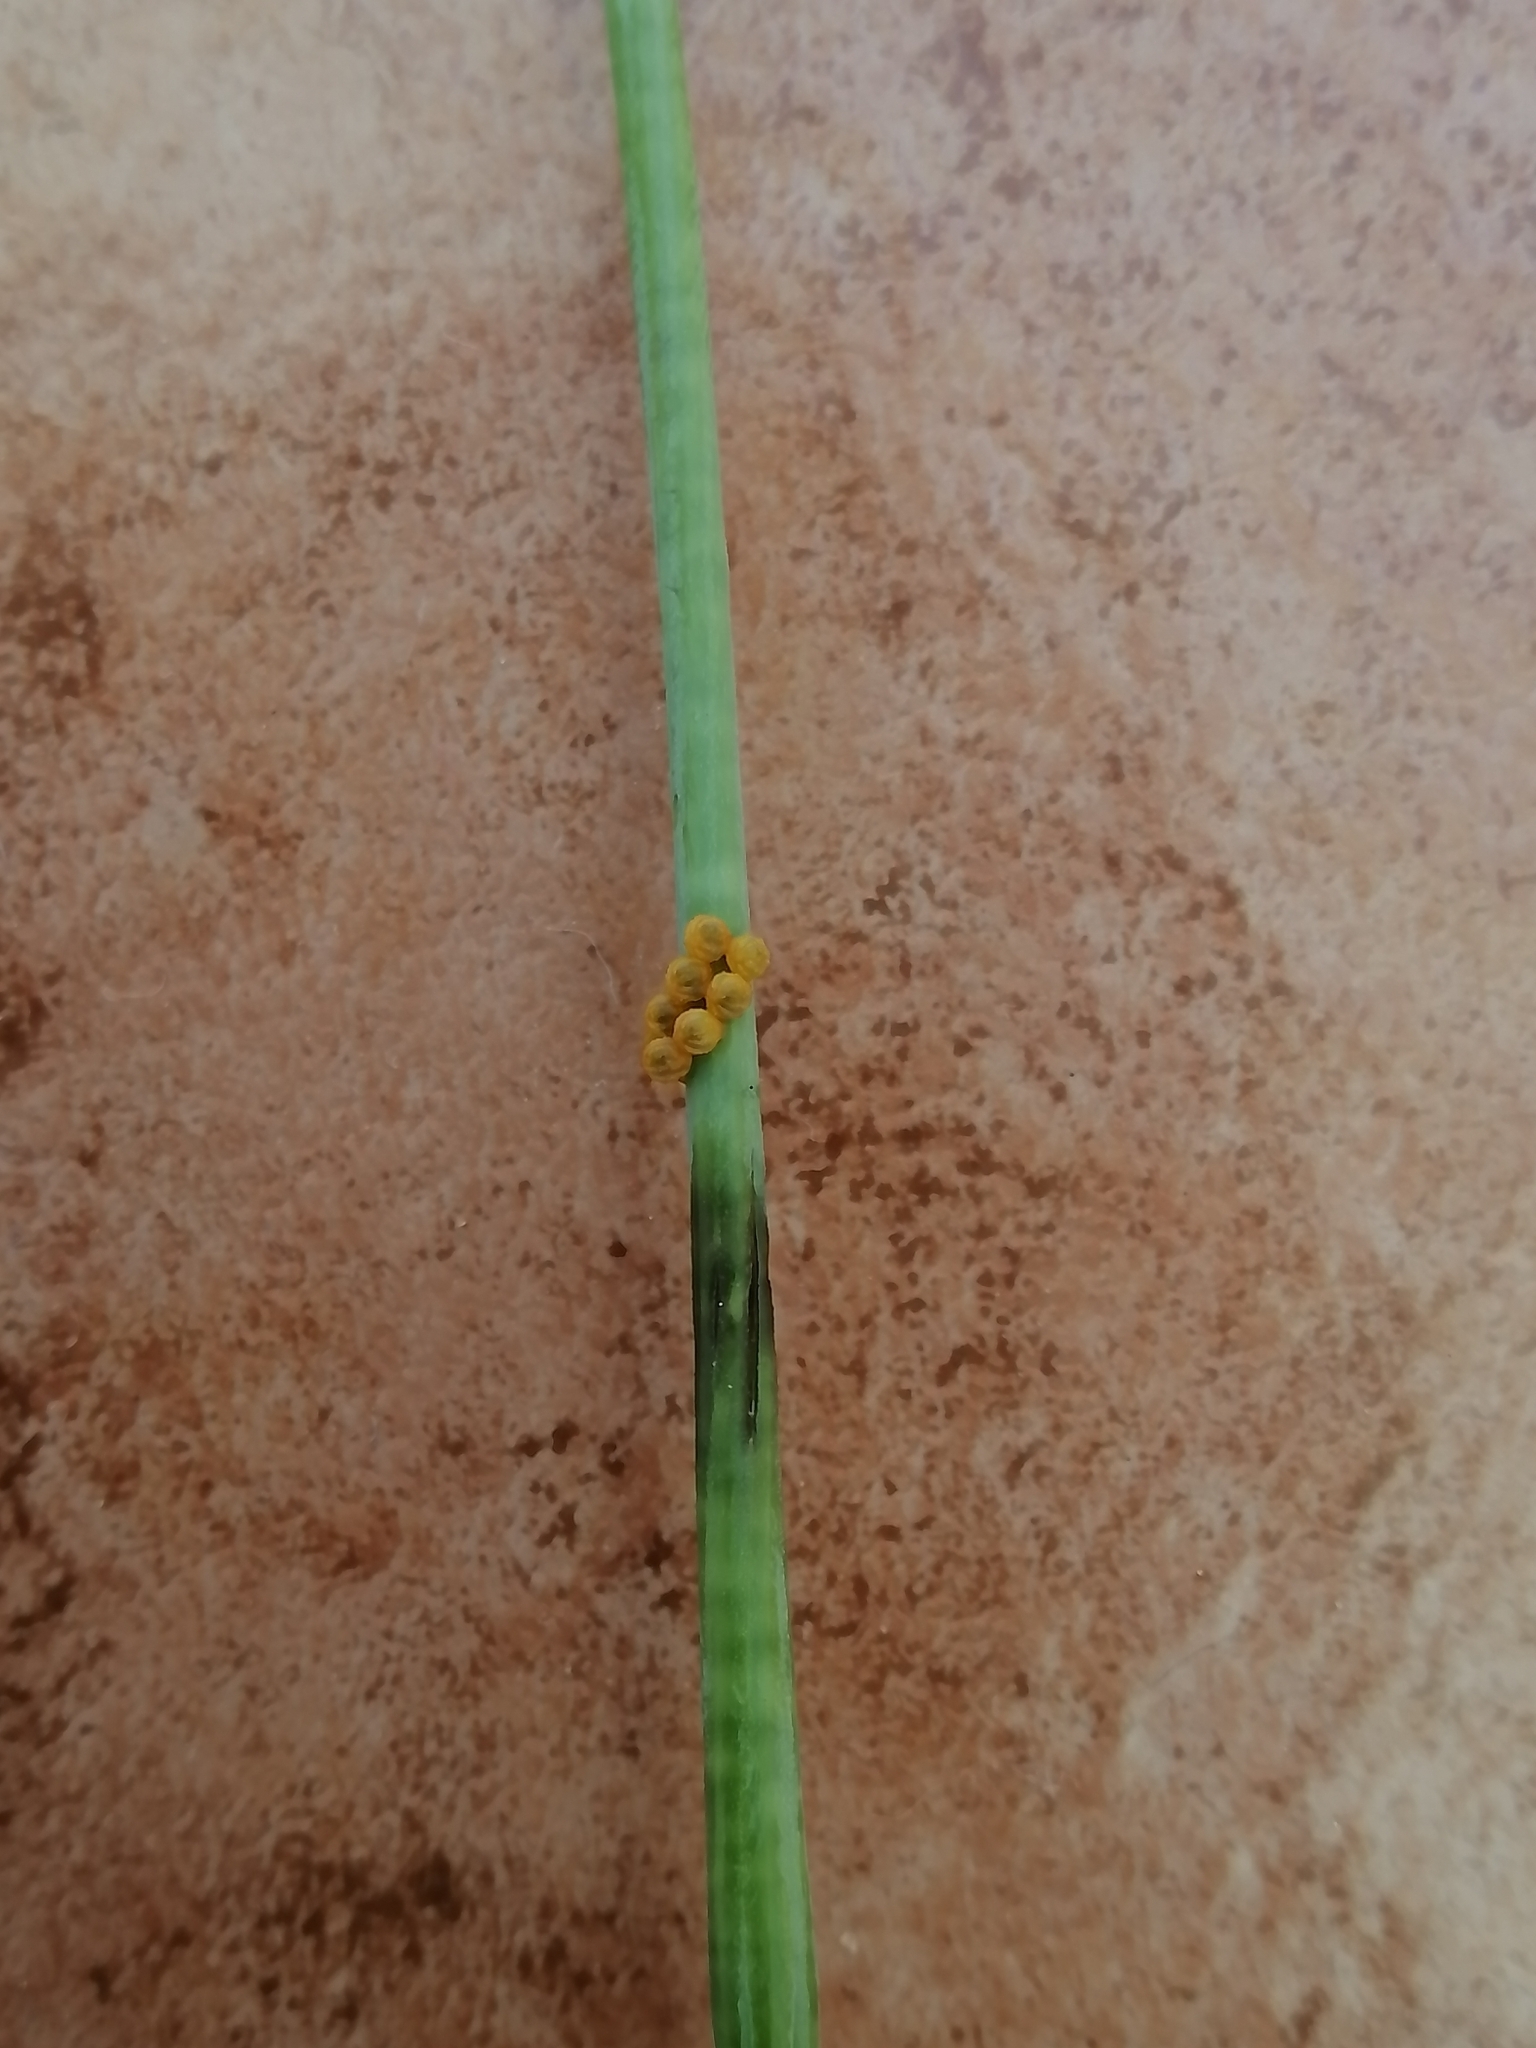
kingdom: Animalia
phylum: Arthropoda
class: Insecta
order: Lepidoptera
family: Papilionidae
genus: Battus
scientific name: Battus polydamas
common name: Polydamas swallowtail
